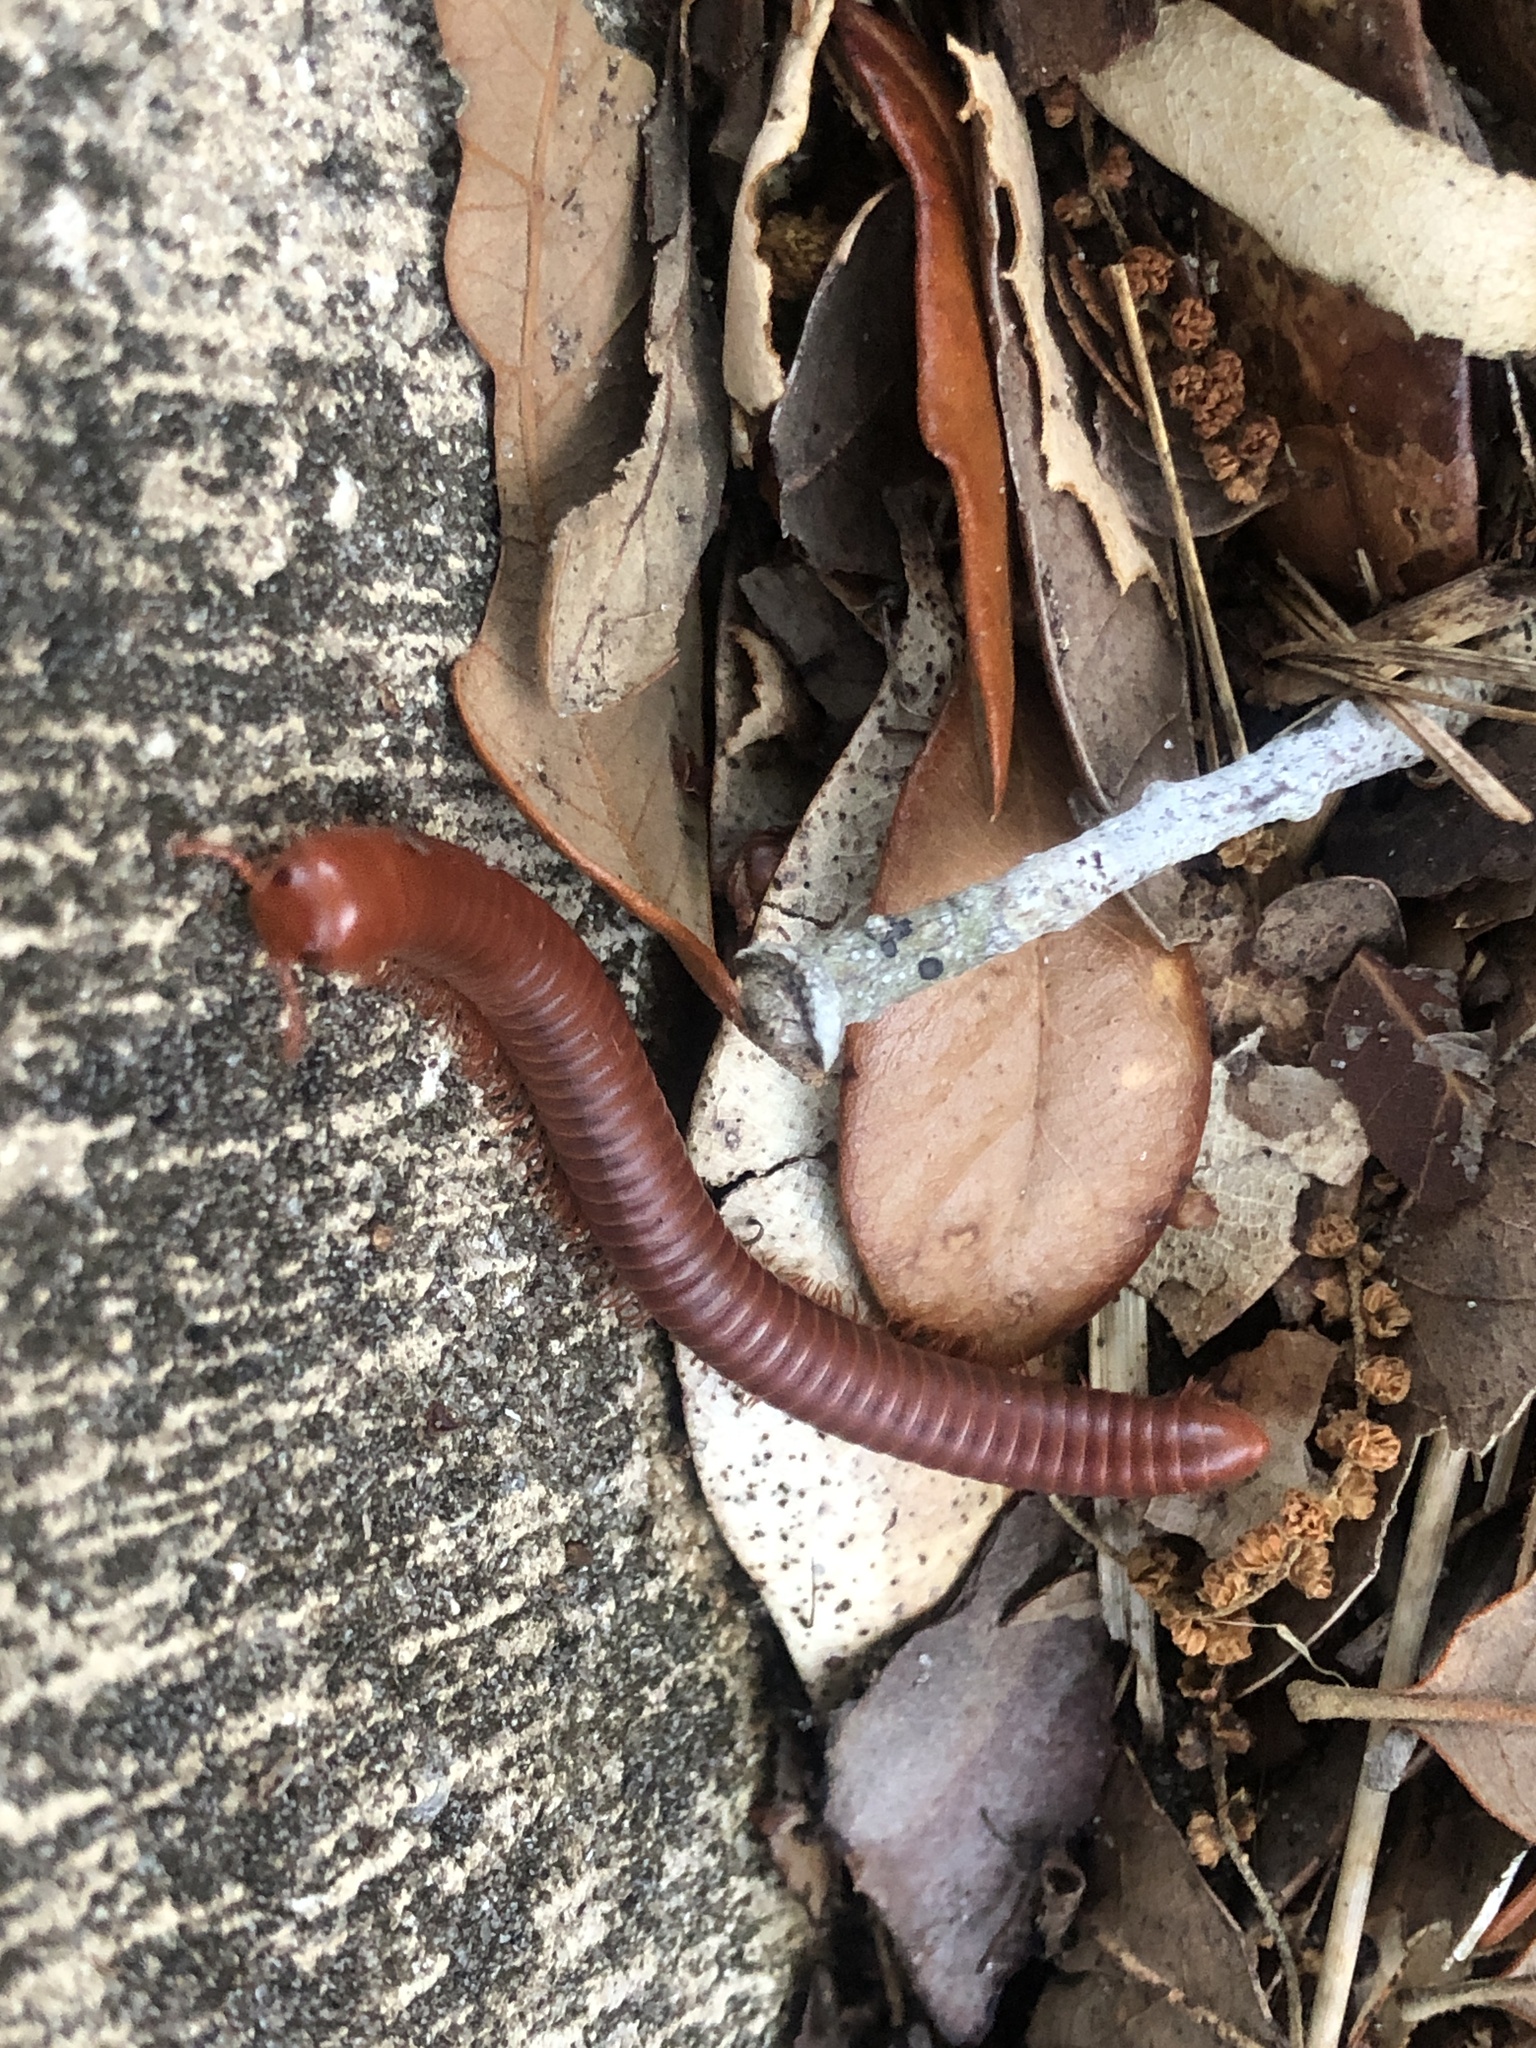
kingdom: Animalia
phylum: Arthropoda
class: Diplopoda
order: Spirobolida
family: Pachybolidae
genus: Trigoniulus
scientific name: Trigoniulus corallinus
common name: Millipede
